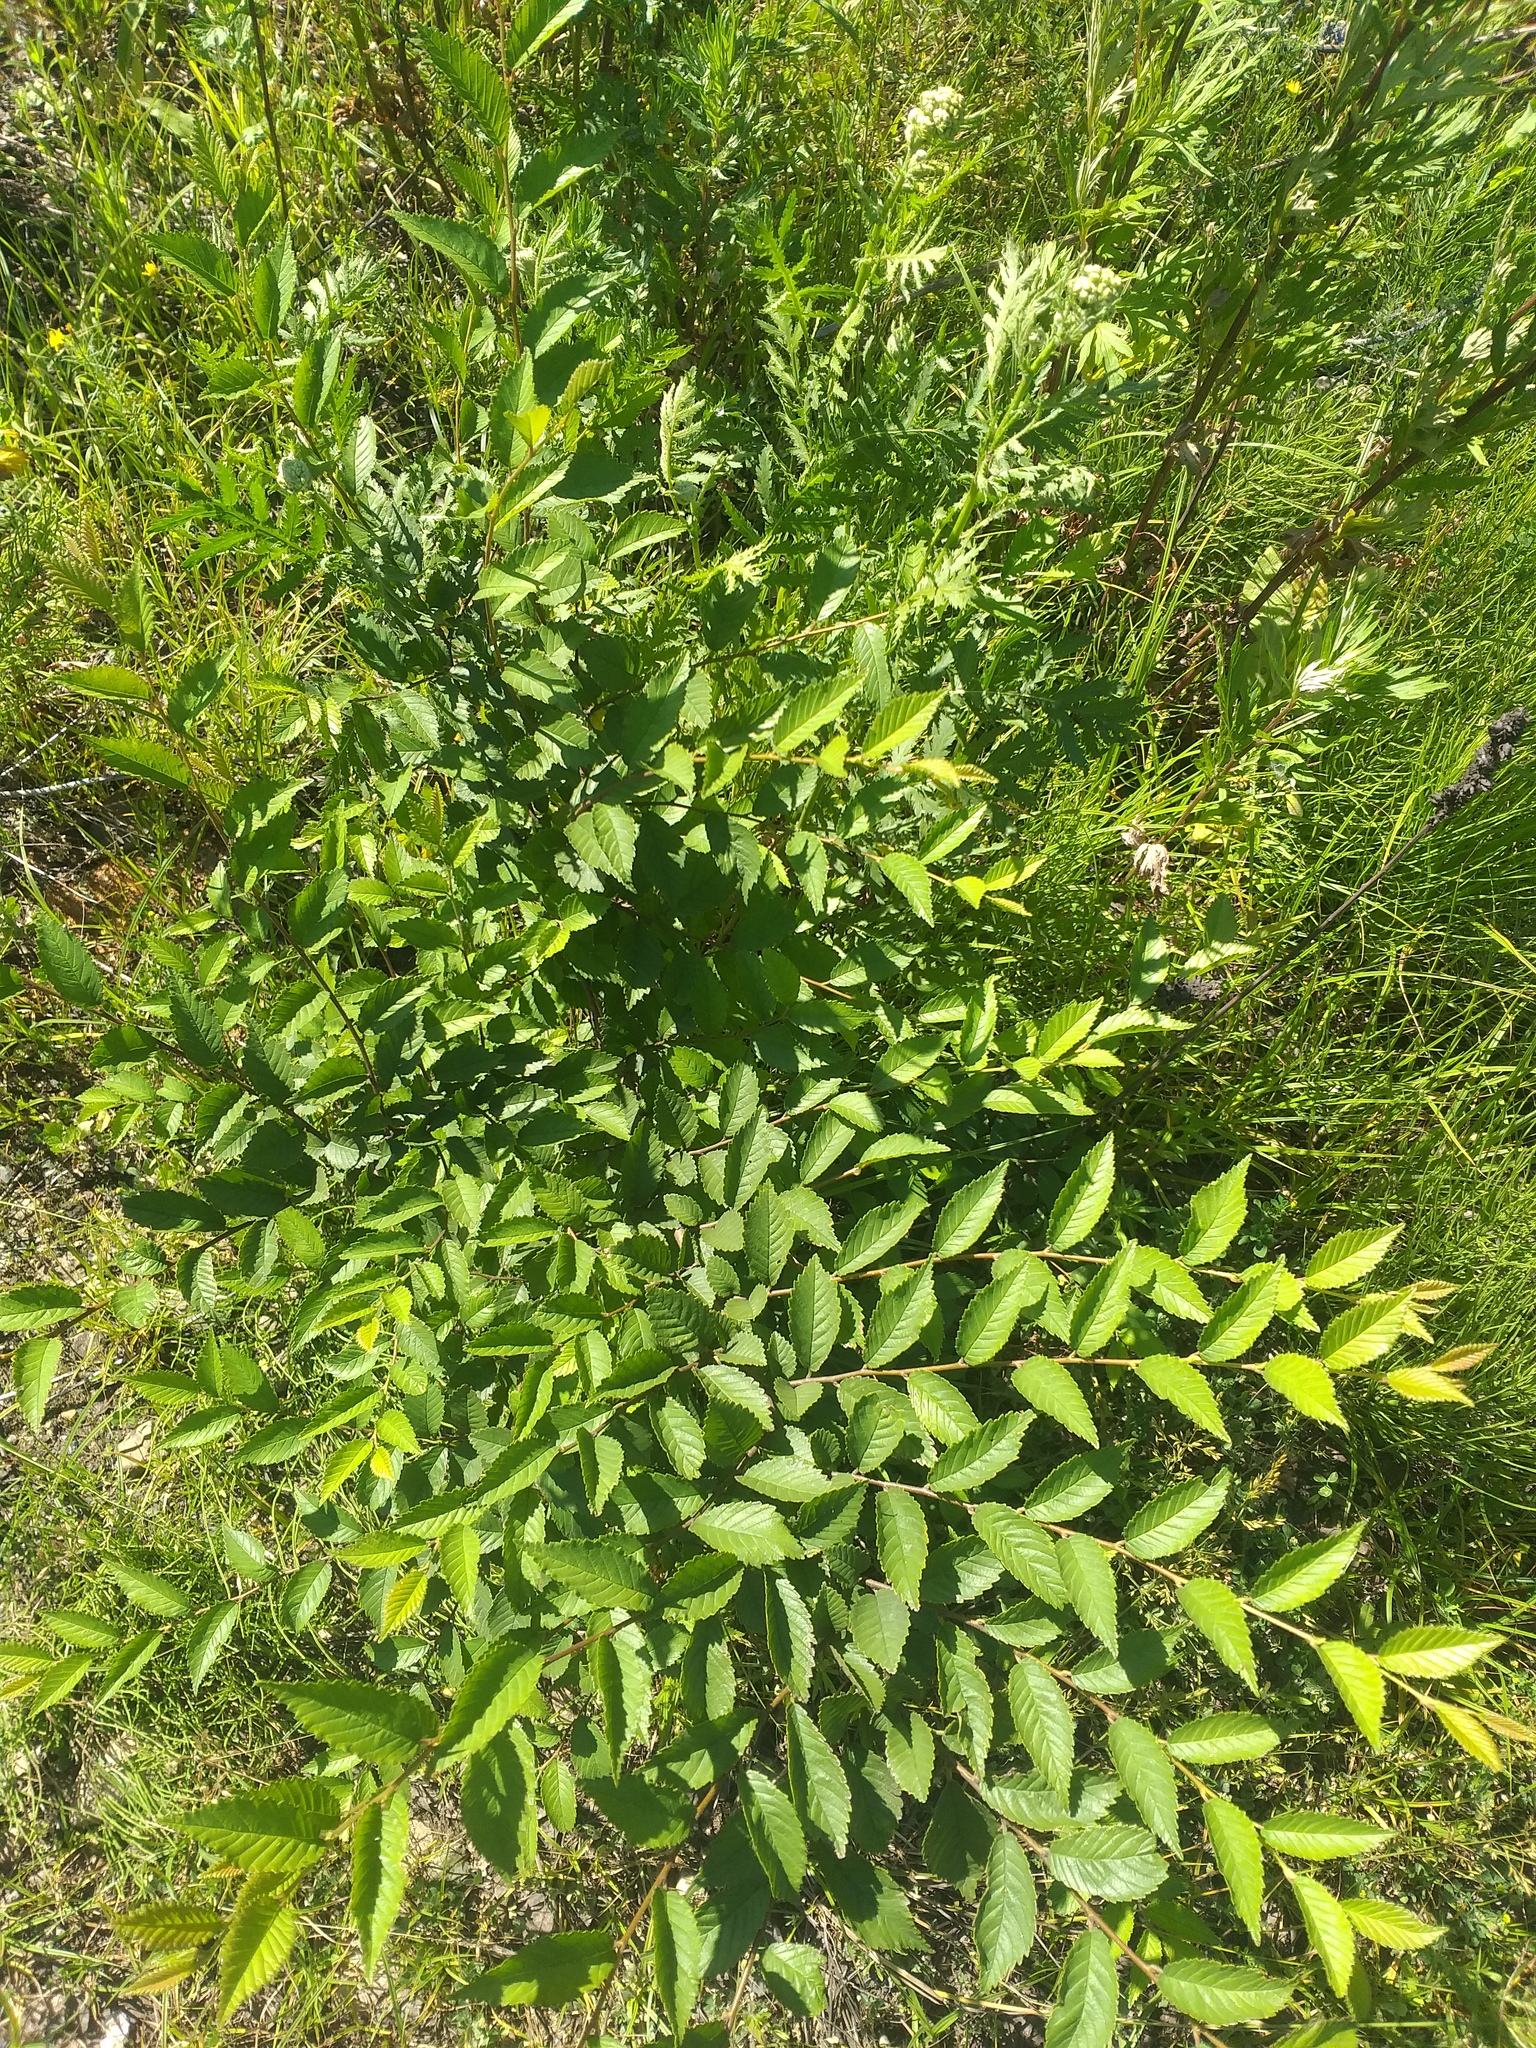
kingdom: Plantae
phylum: Tracheophyta
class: Magnoliopsida
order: Rosales
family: Ulmaceae
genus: Ulmus
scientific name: Ulmus pumila
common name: Siberian elm
